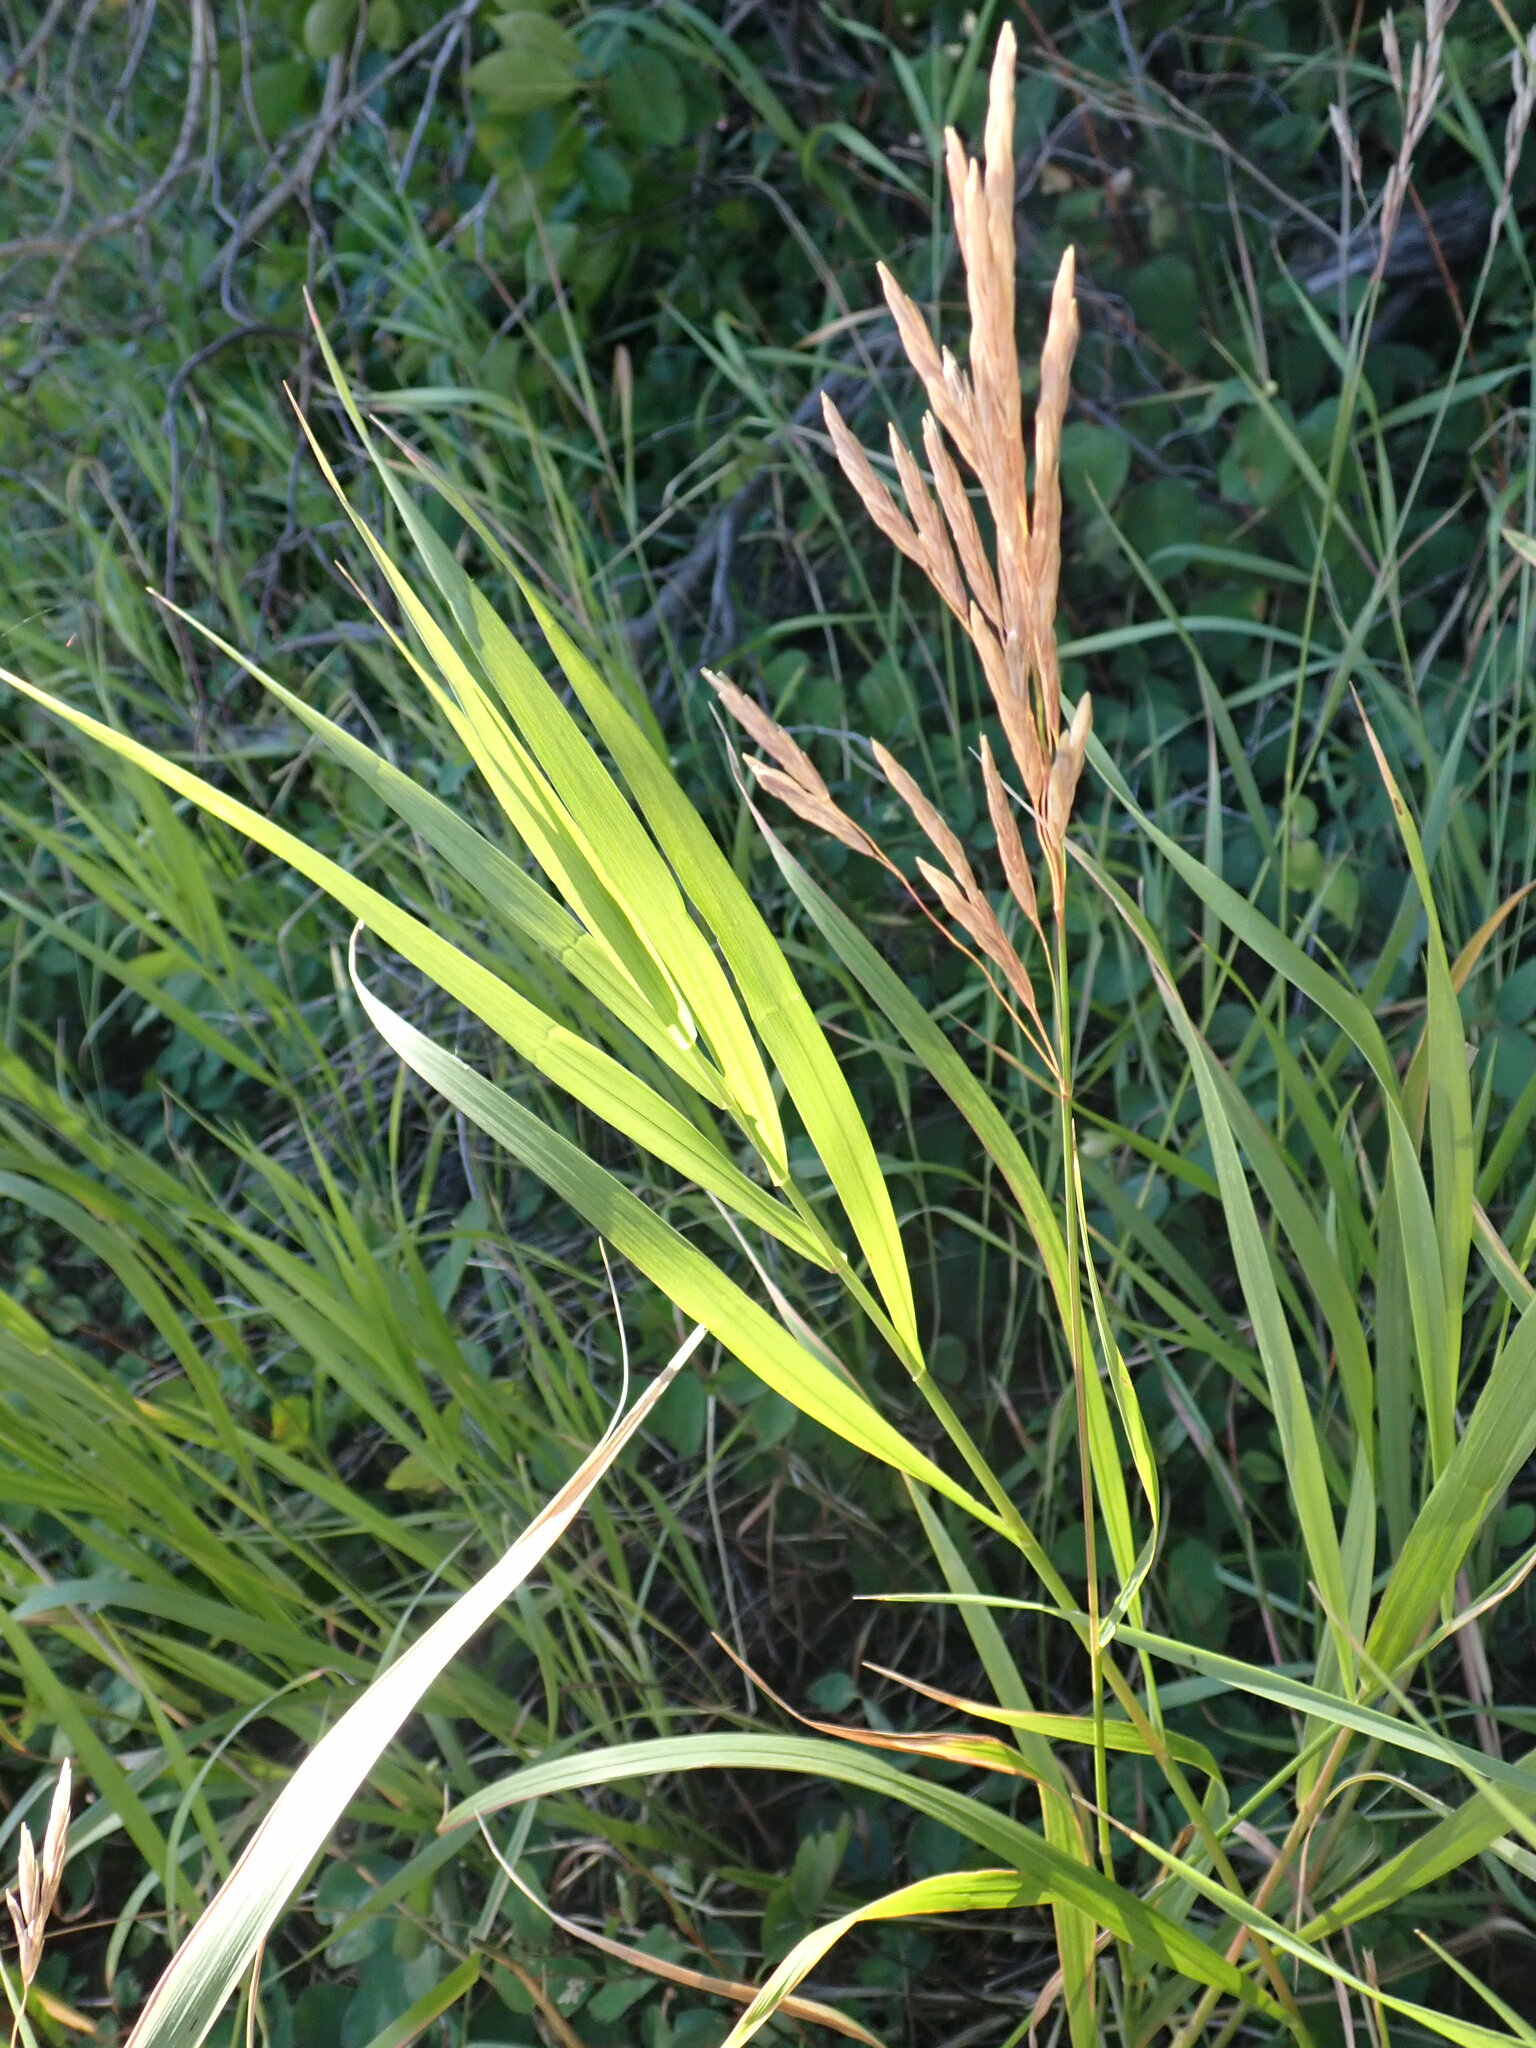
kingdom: Plantae
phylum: Tracheophyta
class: Liliopsida
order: Poales
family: Poaceae
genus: Bromus
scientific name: Bromus inermis
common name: Smooth brome
